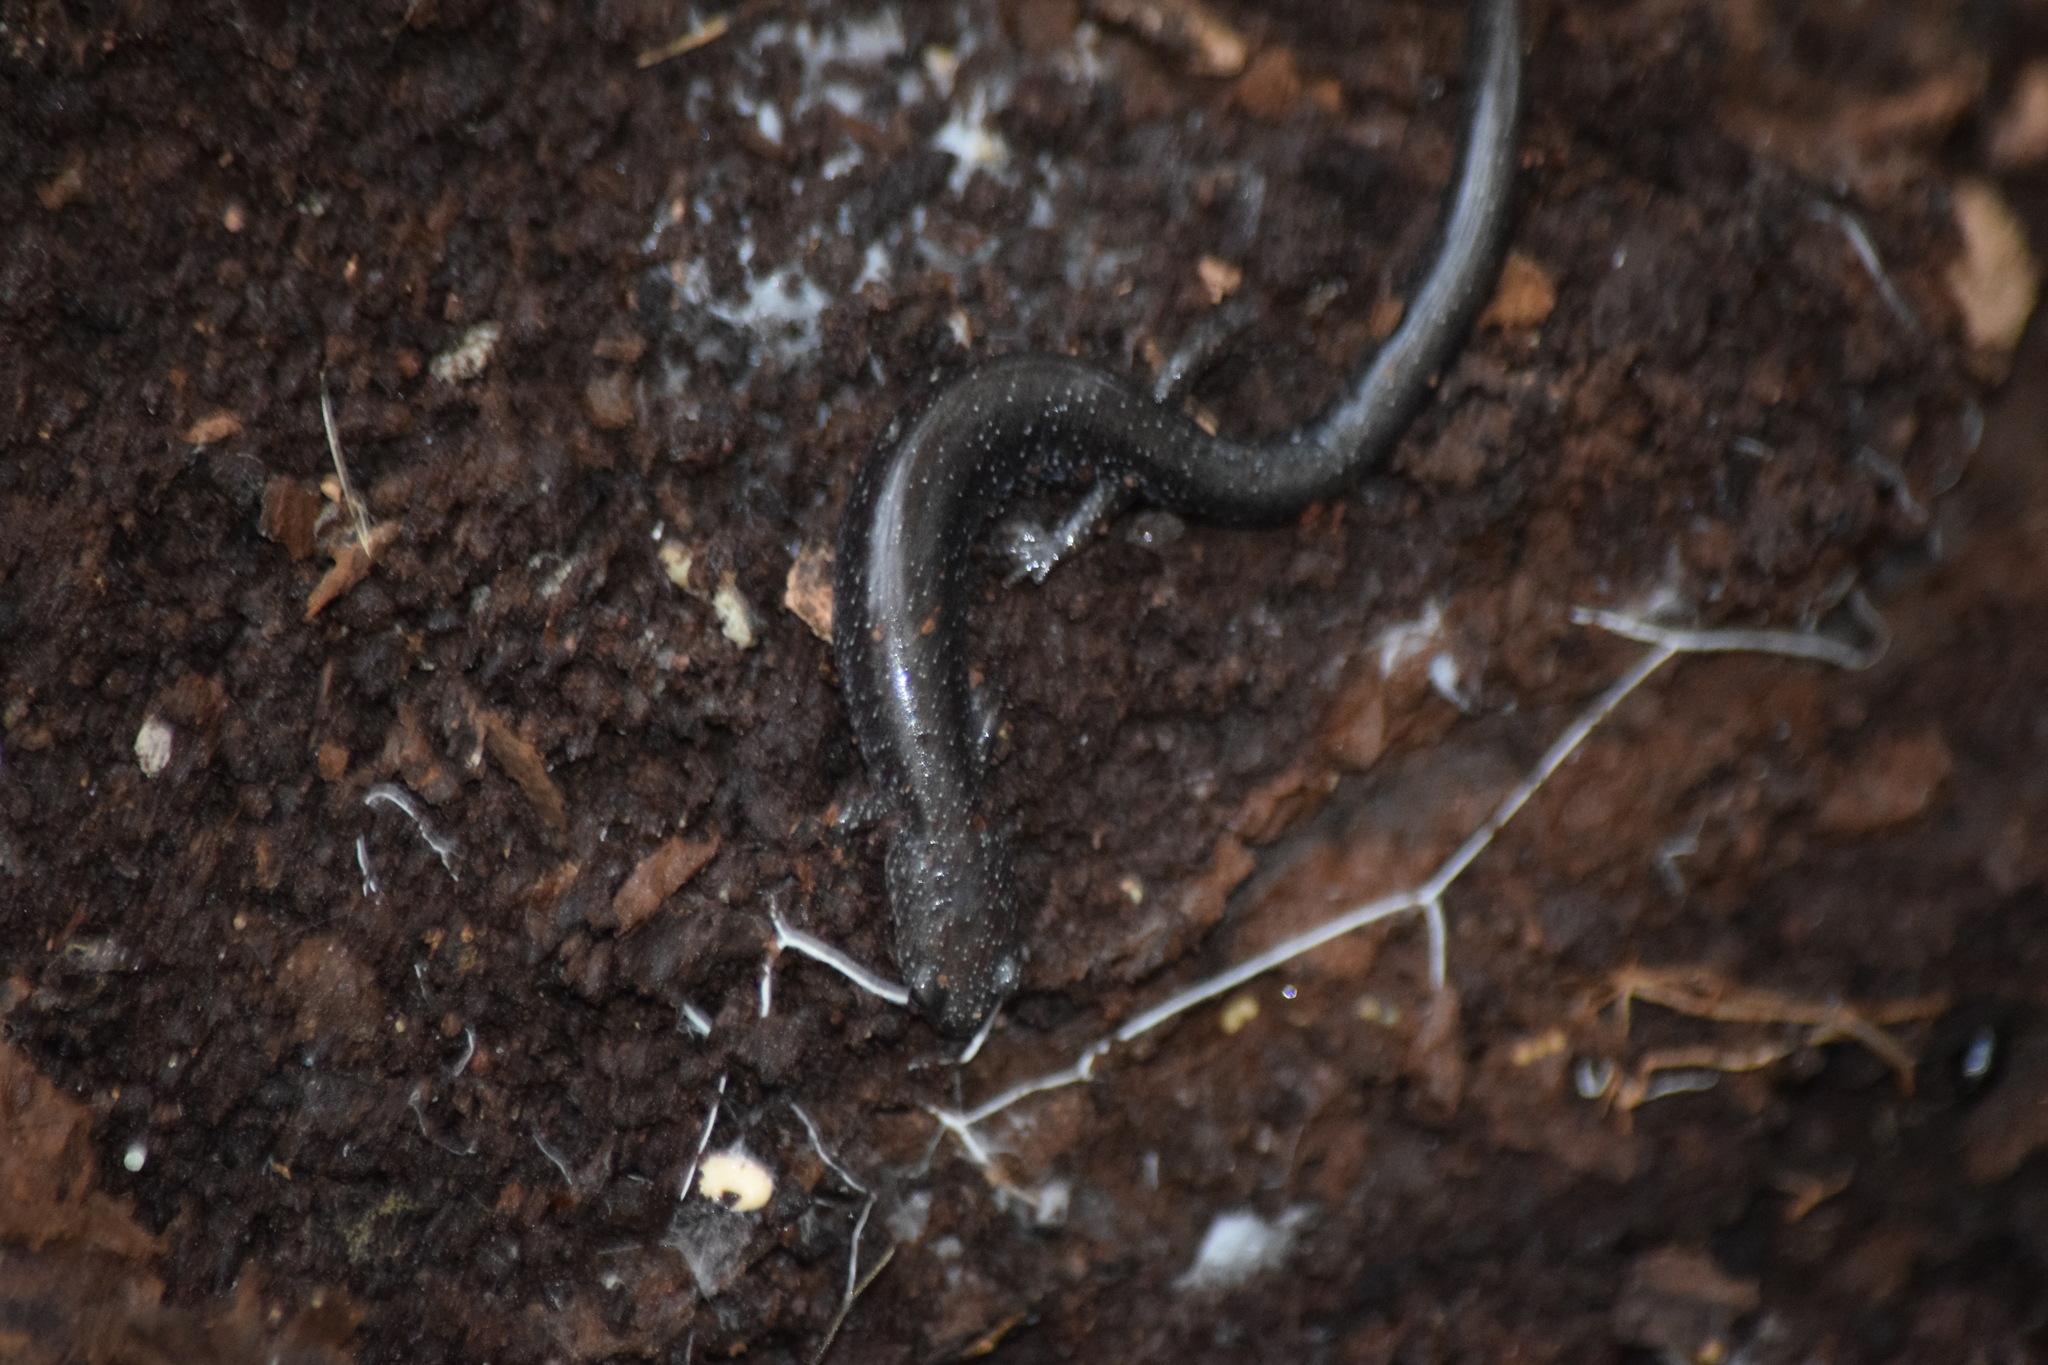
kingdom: Animalia
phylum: Chordata
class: Amphibia
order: Caudata
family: Plethodontidae
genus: Plethodon
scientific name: Plethodon cinereus
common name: Redback salamander
